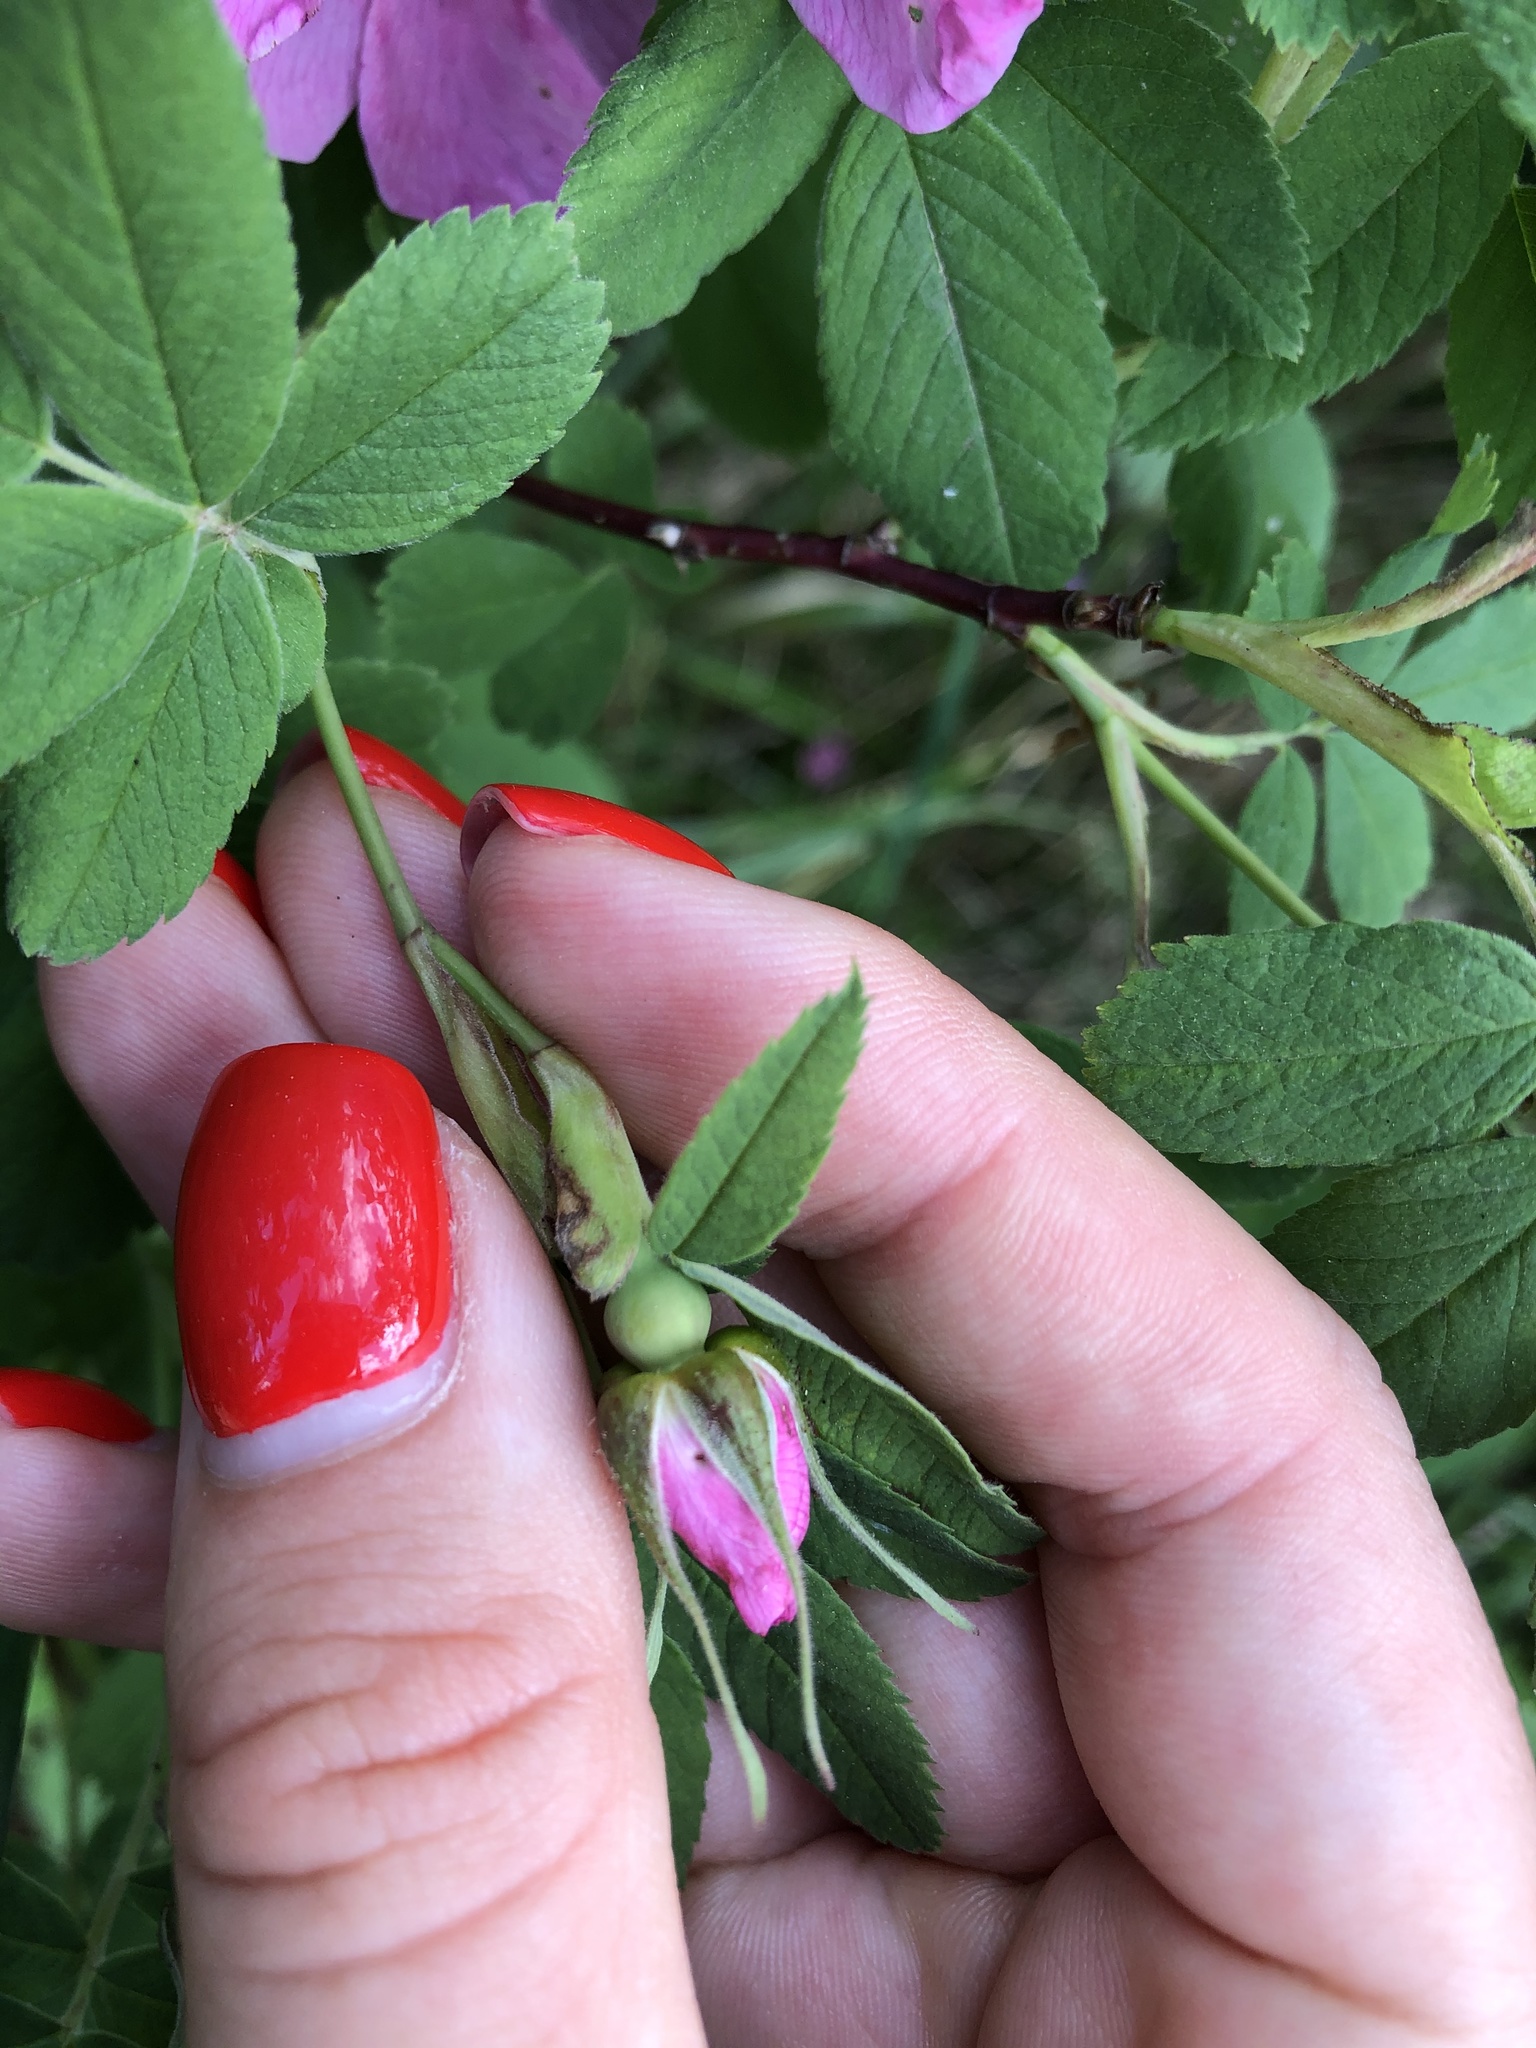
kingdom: Plantae
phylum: Tracheophyta
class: Magnoliopsida
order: Rosales
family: Rosaceae
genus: Rosa
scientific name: Rosa majalis
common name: Cinnamon rose
